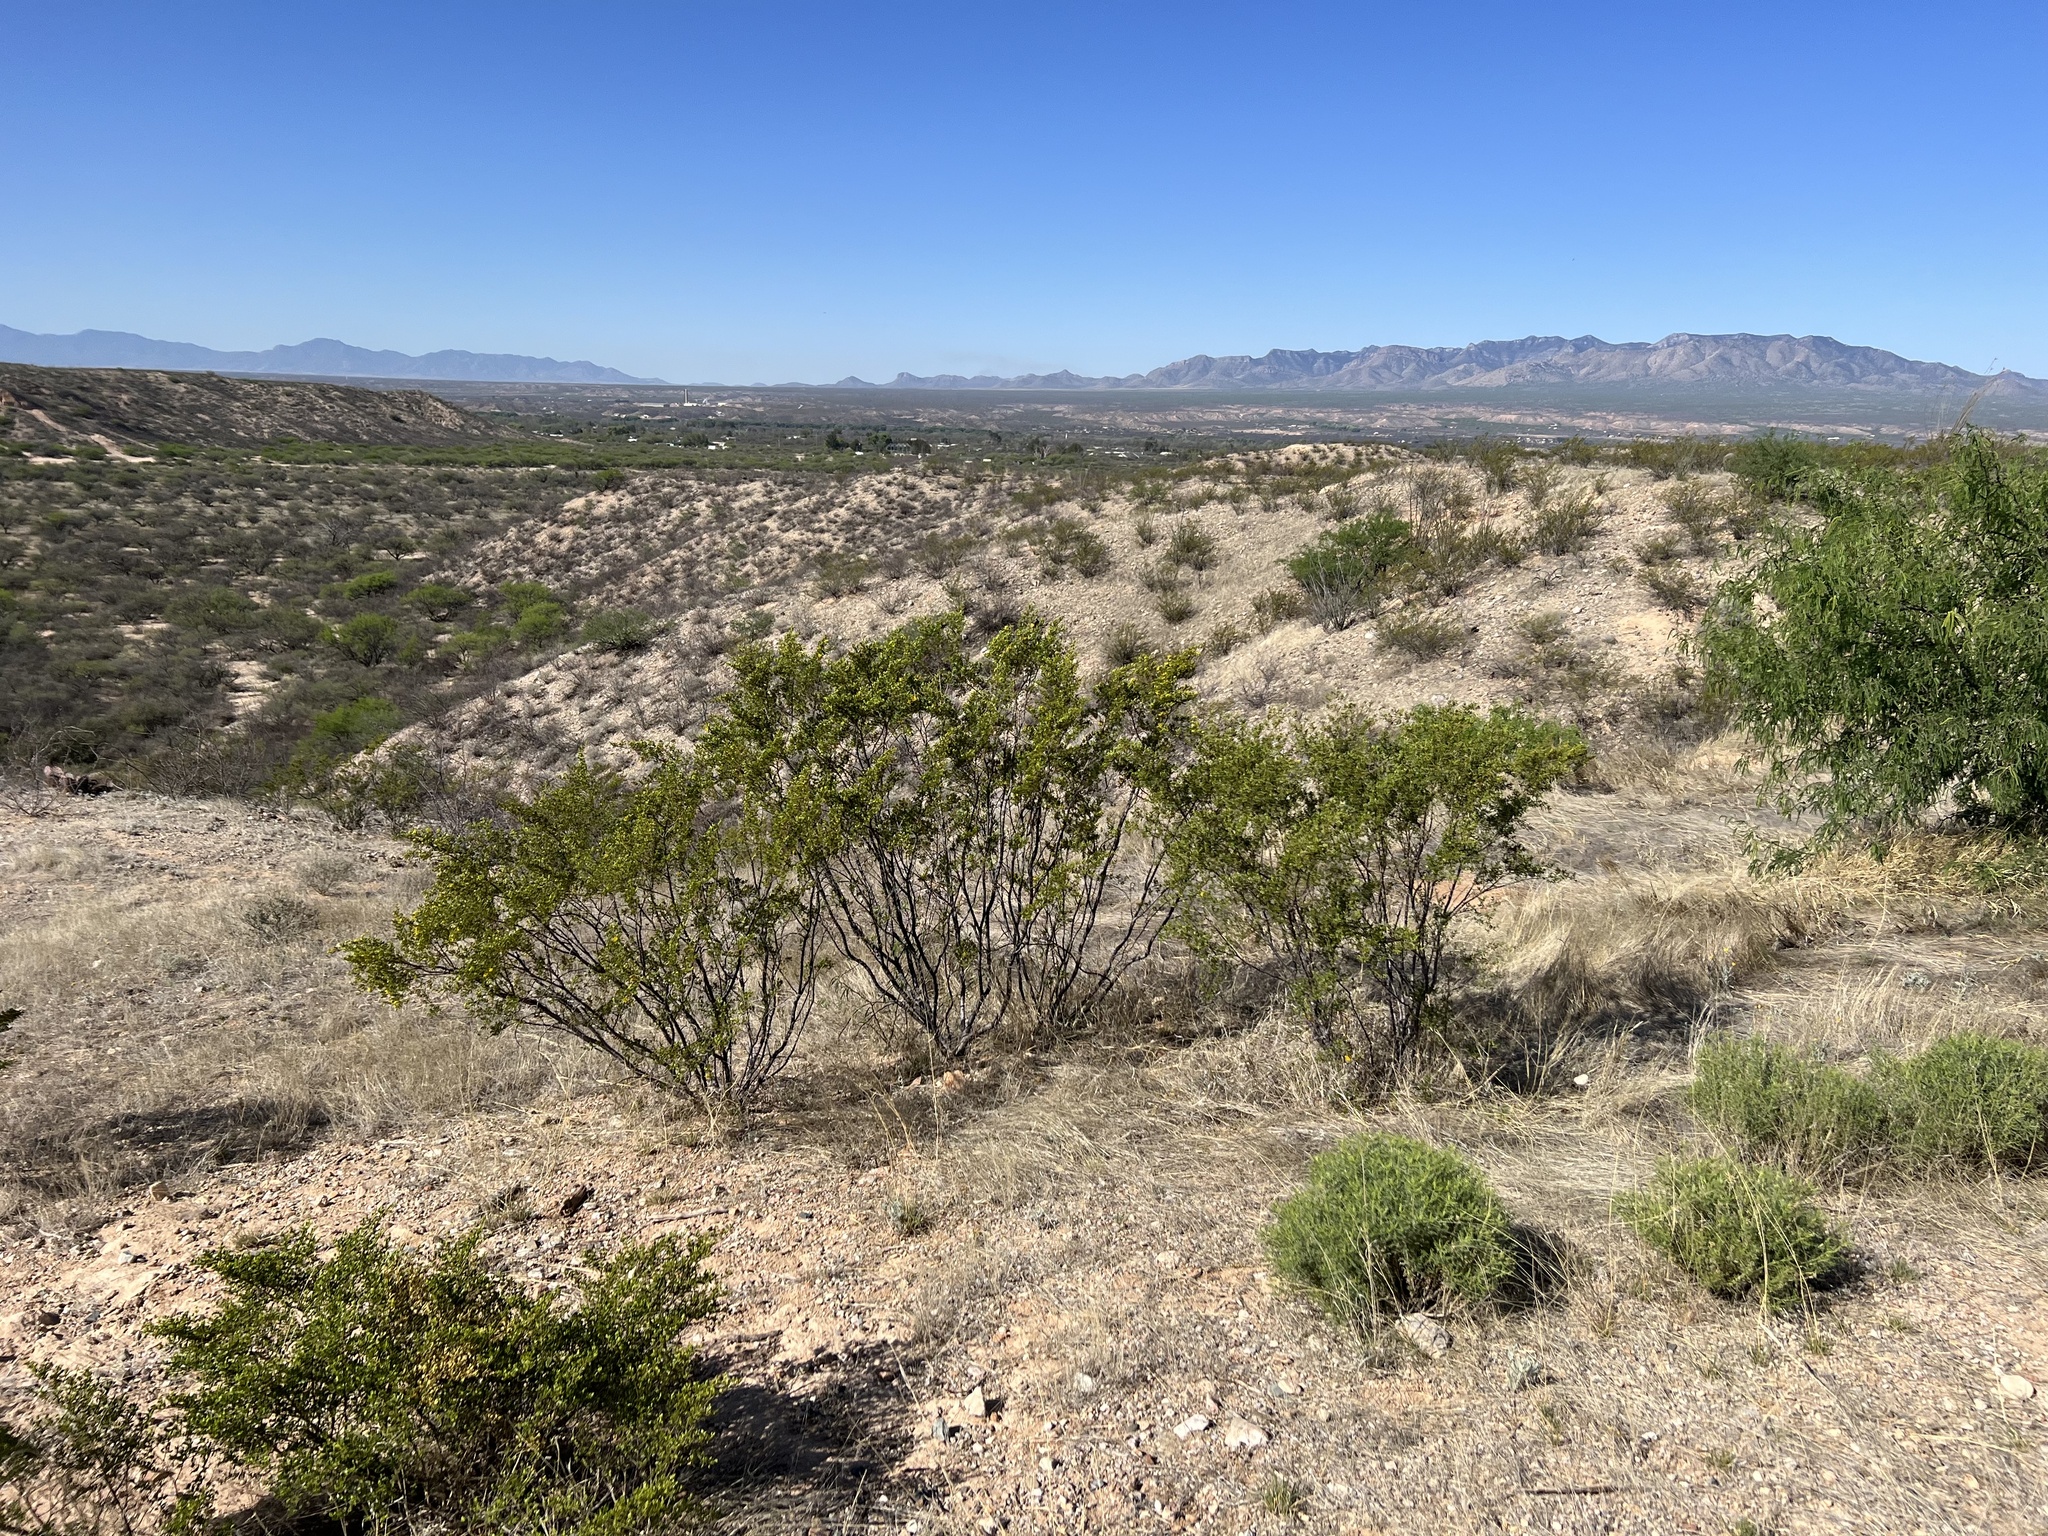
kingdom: Plantae
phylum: Tracheophyta
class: Magnoliopsida
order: Zygophyllales
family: Zygophyllaceae
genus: Larrea
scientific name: Larrea tridentata
